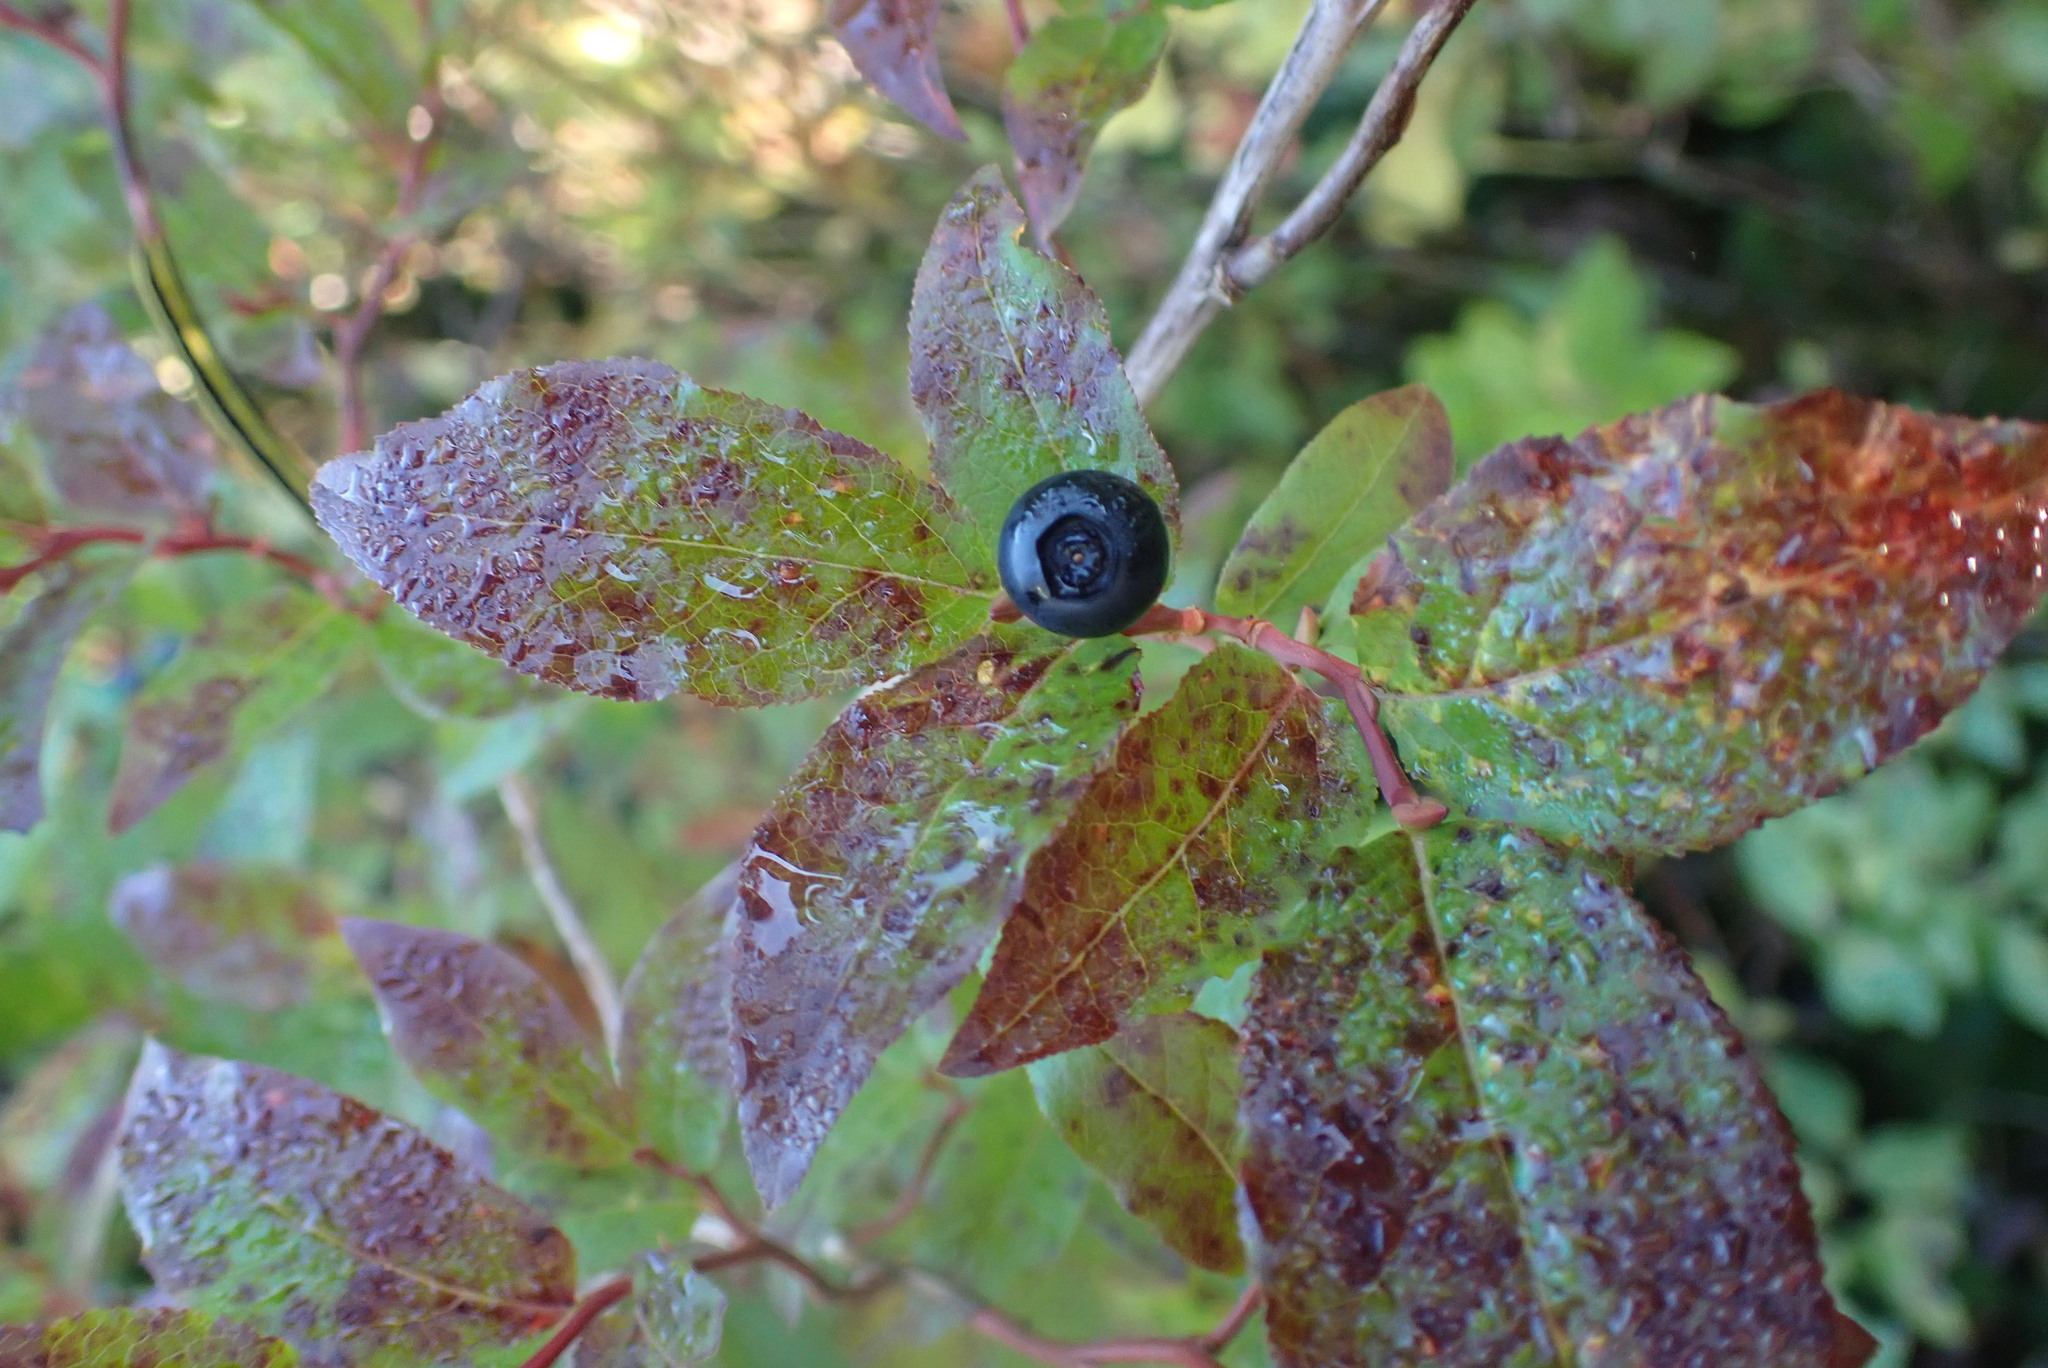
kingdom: Plantae
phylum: Tracheophyta
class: Magnoliopsida
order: Ericales
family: Ericaceae
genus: Vaccinium
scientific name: Vaccinium membranaceum
